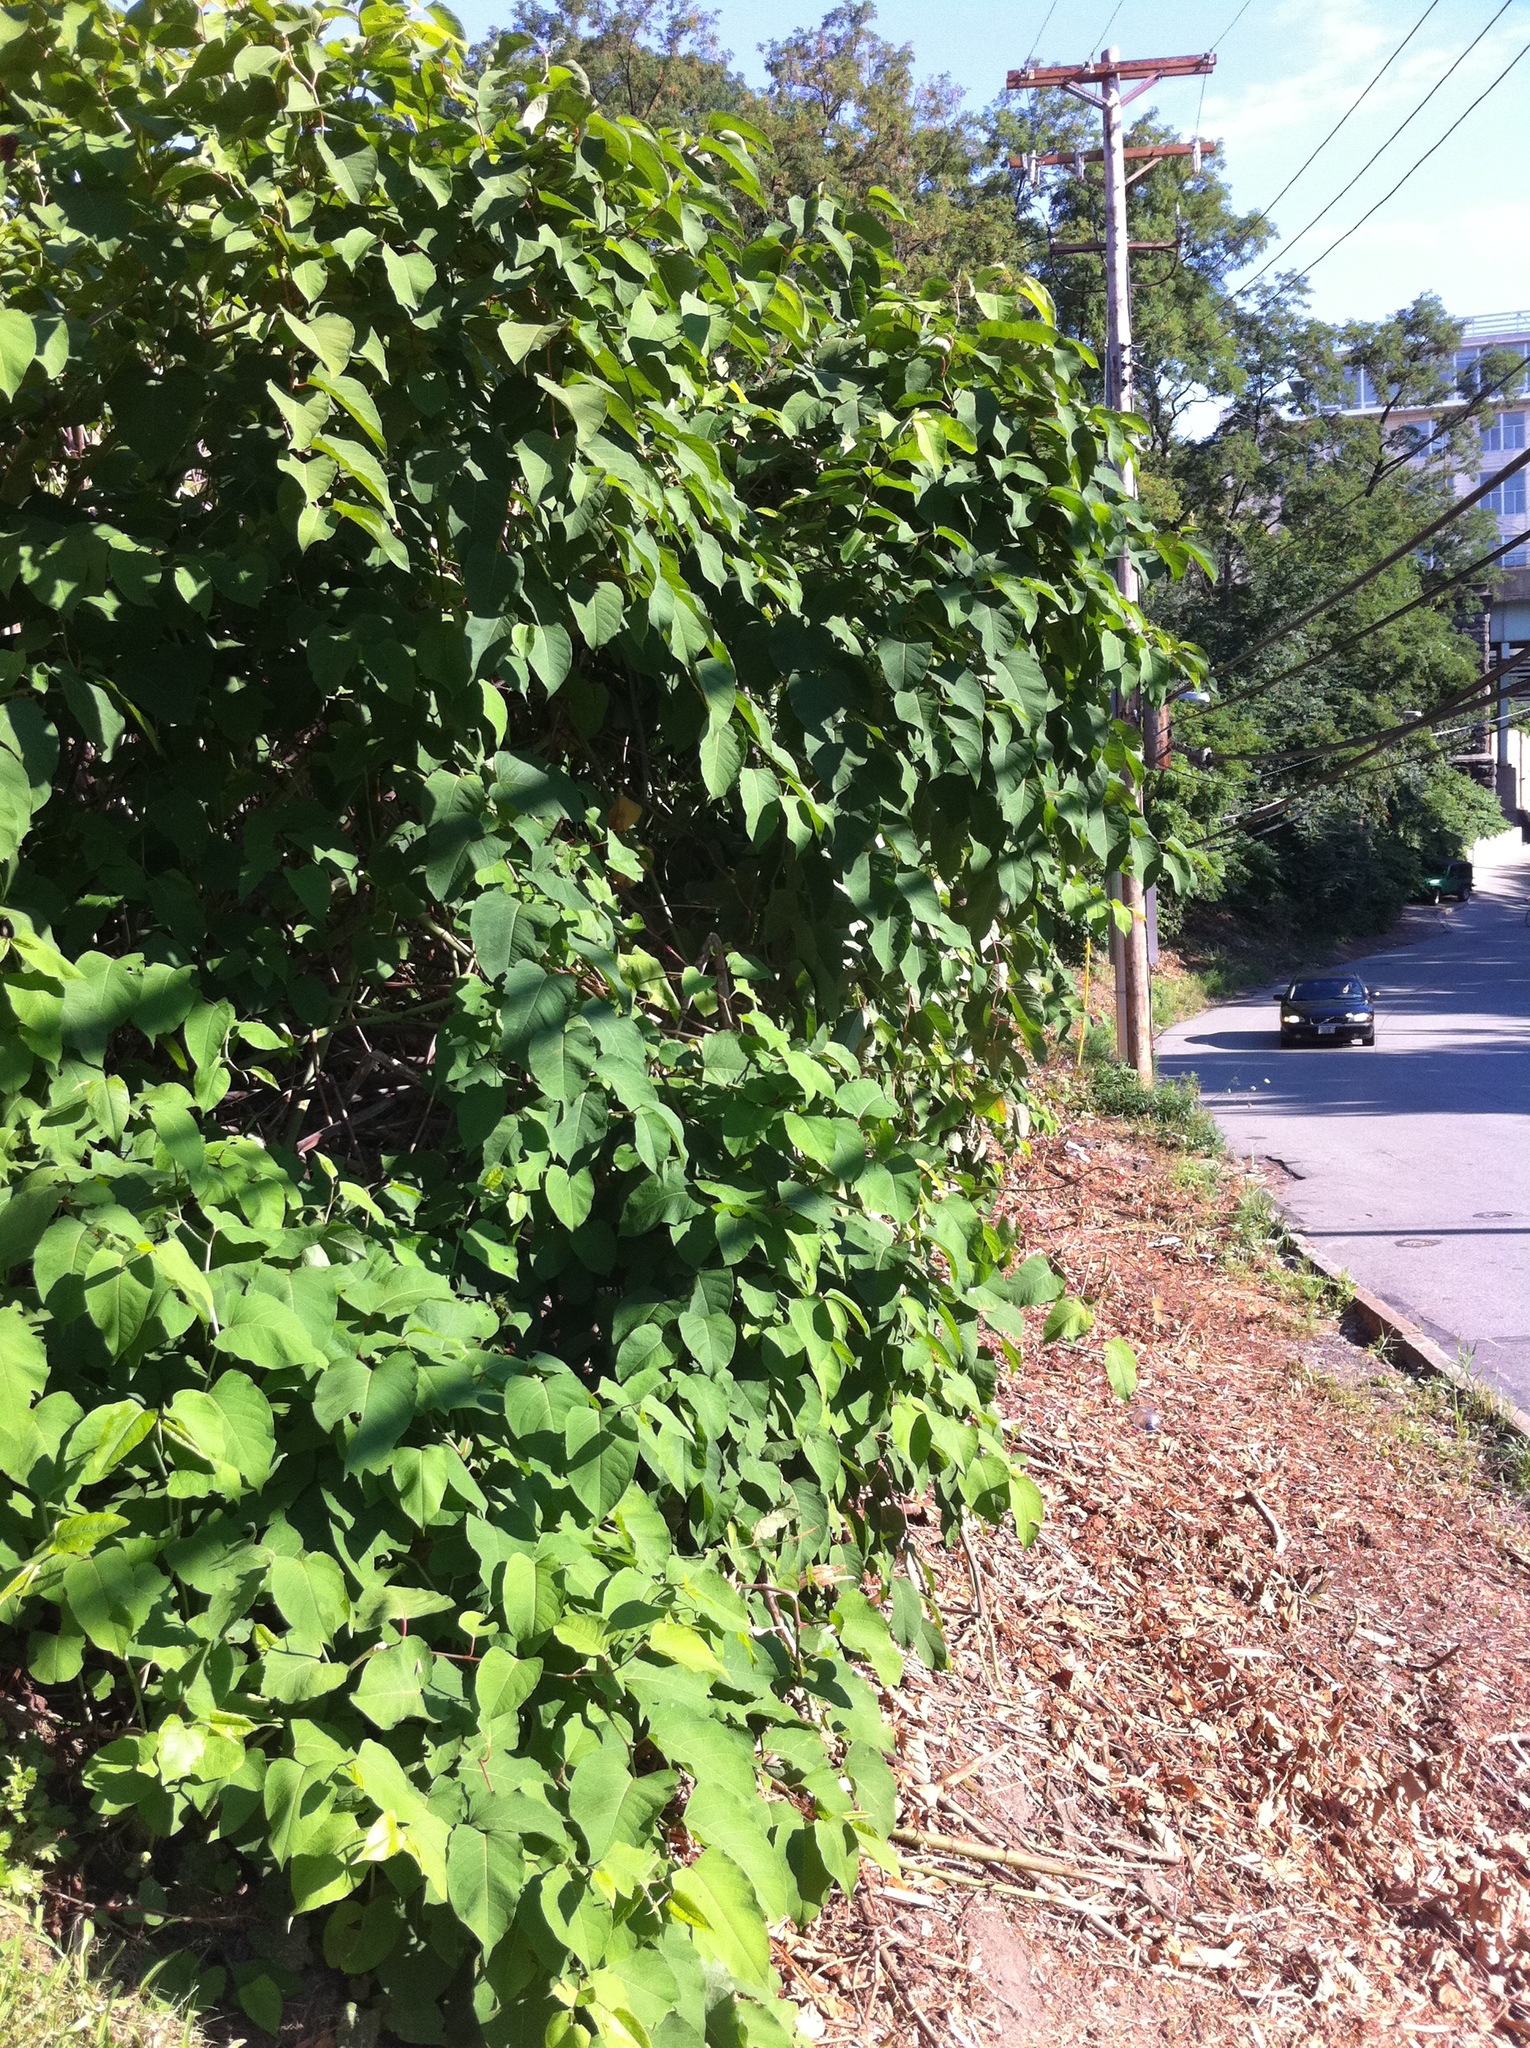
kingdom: Plantae
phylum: Tracheophyta
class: Magnoliopsida
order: Caryophyllales
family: Polygonaceae
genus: Reynoutria
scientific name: Reynoutria japonica
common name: Japanese knotweed
